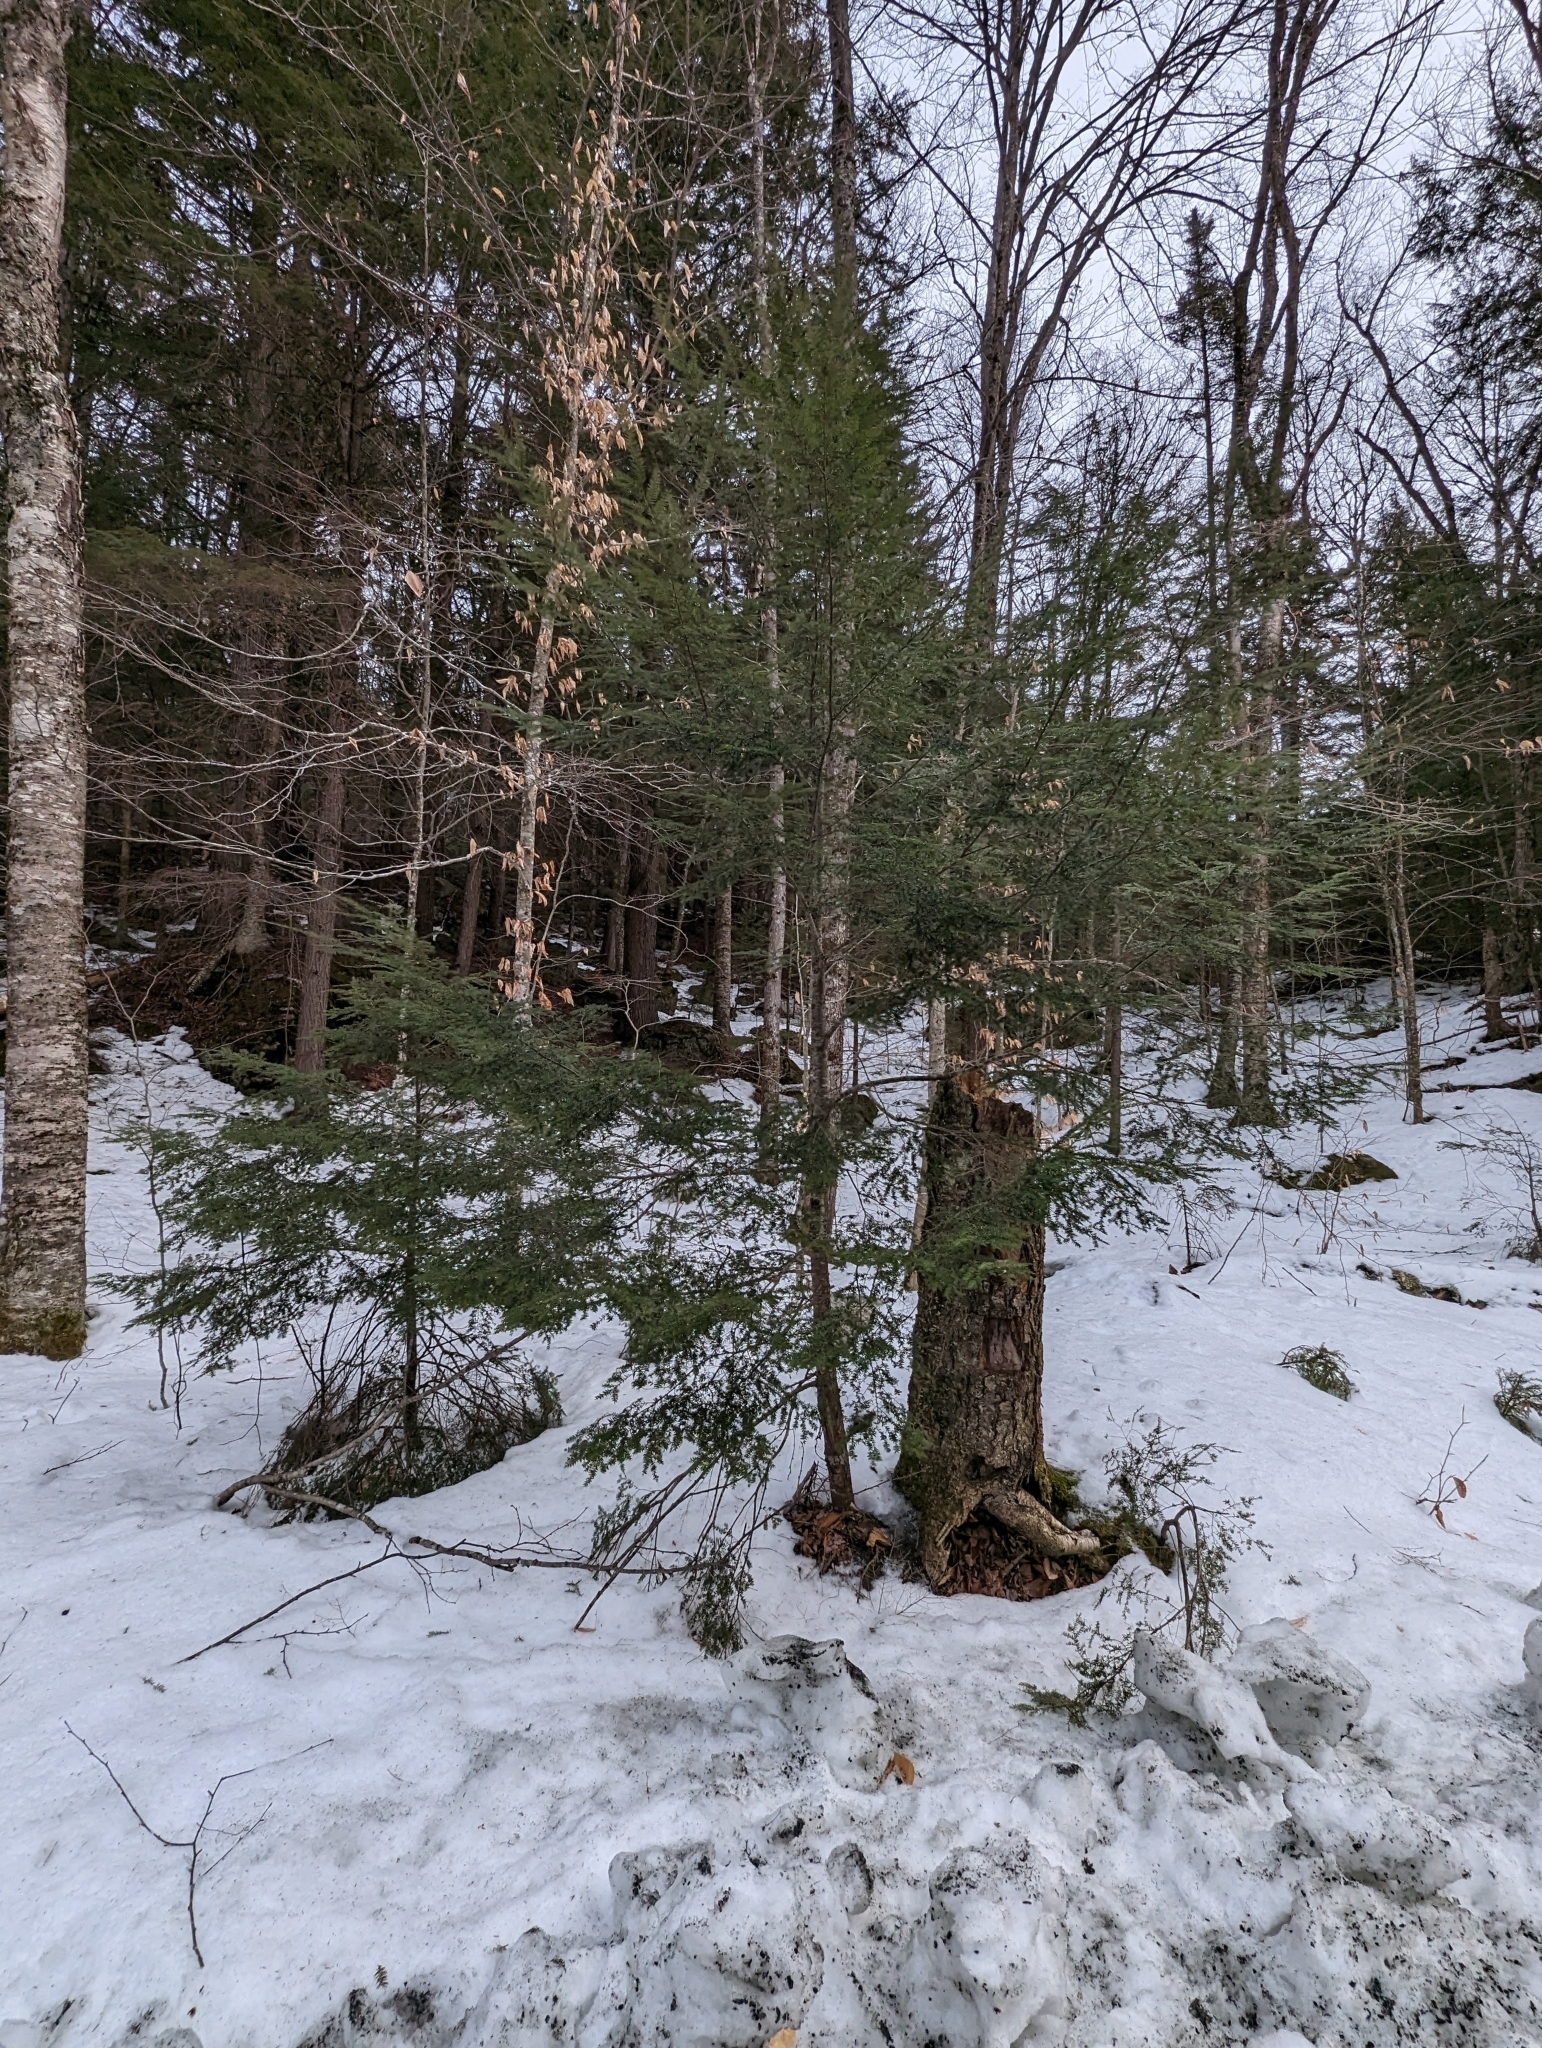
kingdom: Plantae
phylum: Tracheophyta
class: Pinopsida
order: Pinales
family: Pinaceae
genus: Tsuga
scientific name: Tsuga canadensis
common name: Eastern hemlock
